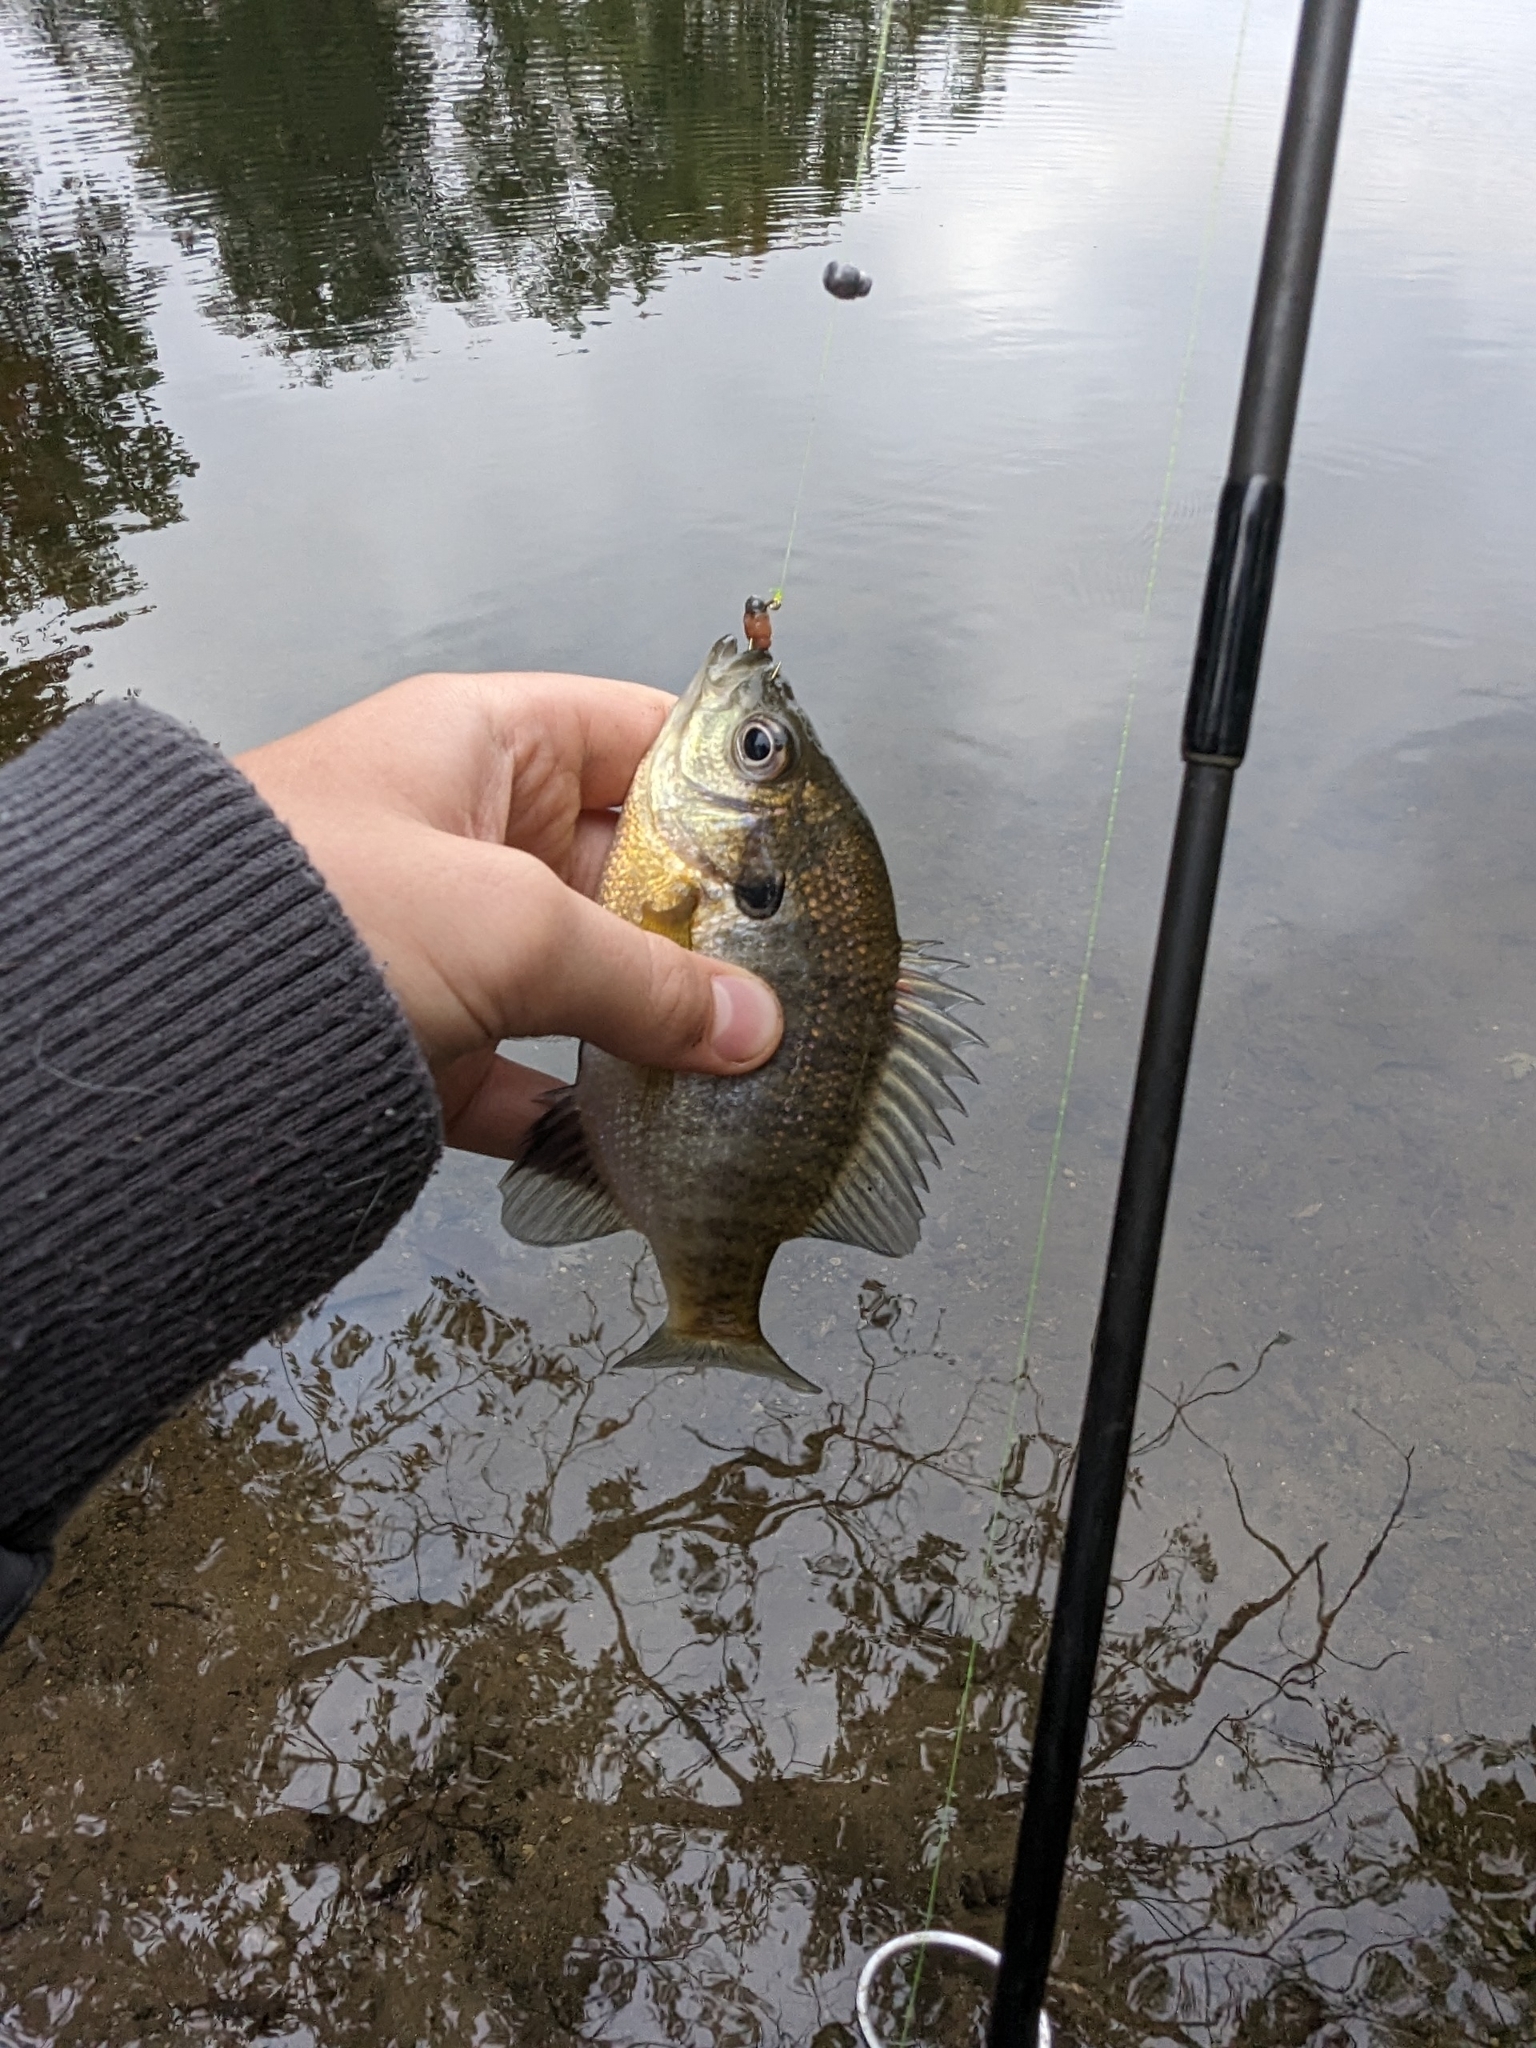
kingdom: Animalia
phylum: Chordata
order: Perciformes
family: Centrarchidae
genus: Lepomis
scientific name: Lepomis macrochirus
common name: Bluegill
